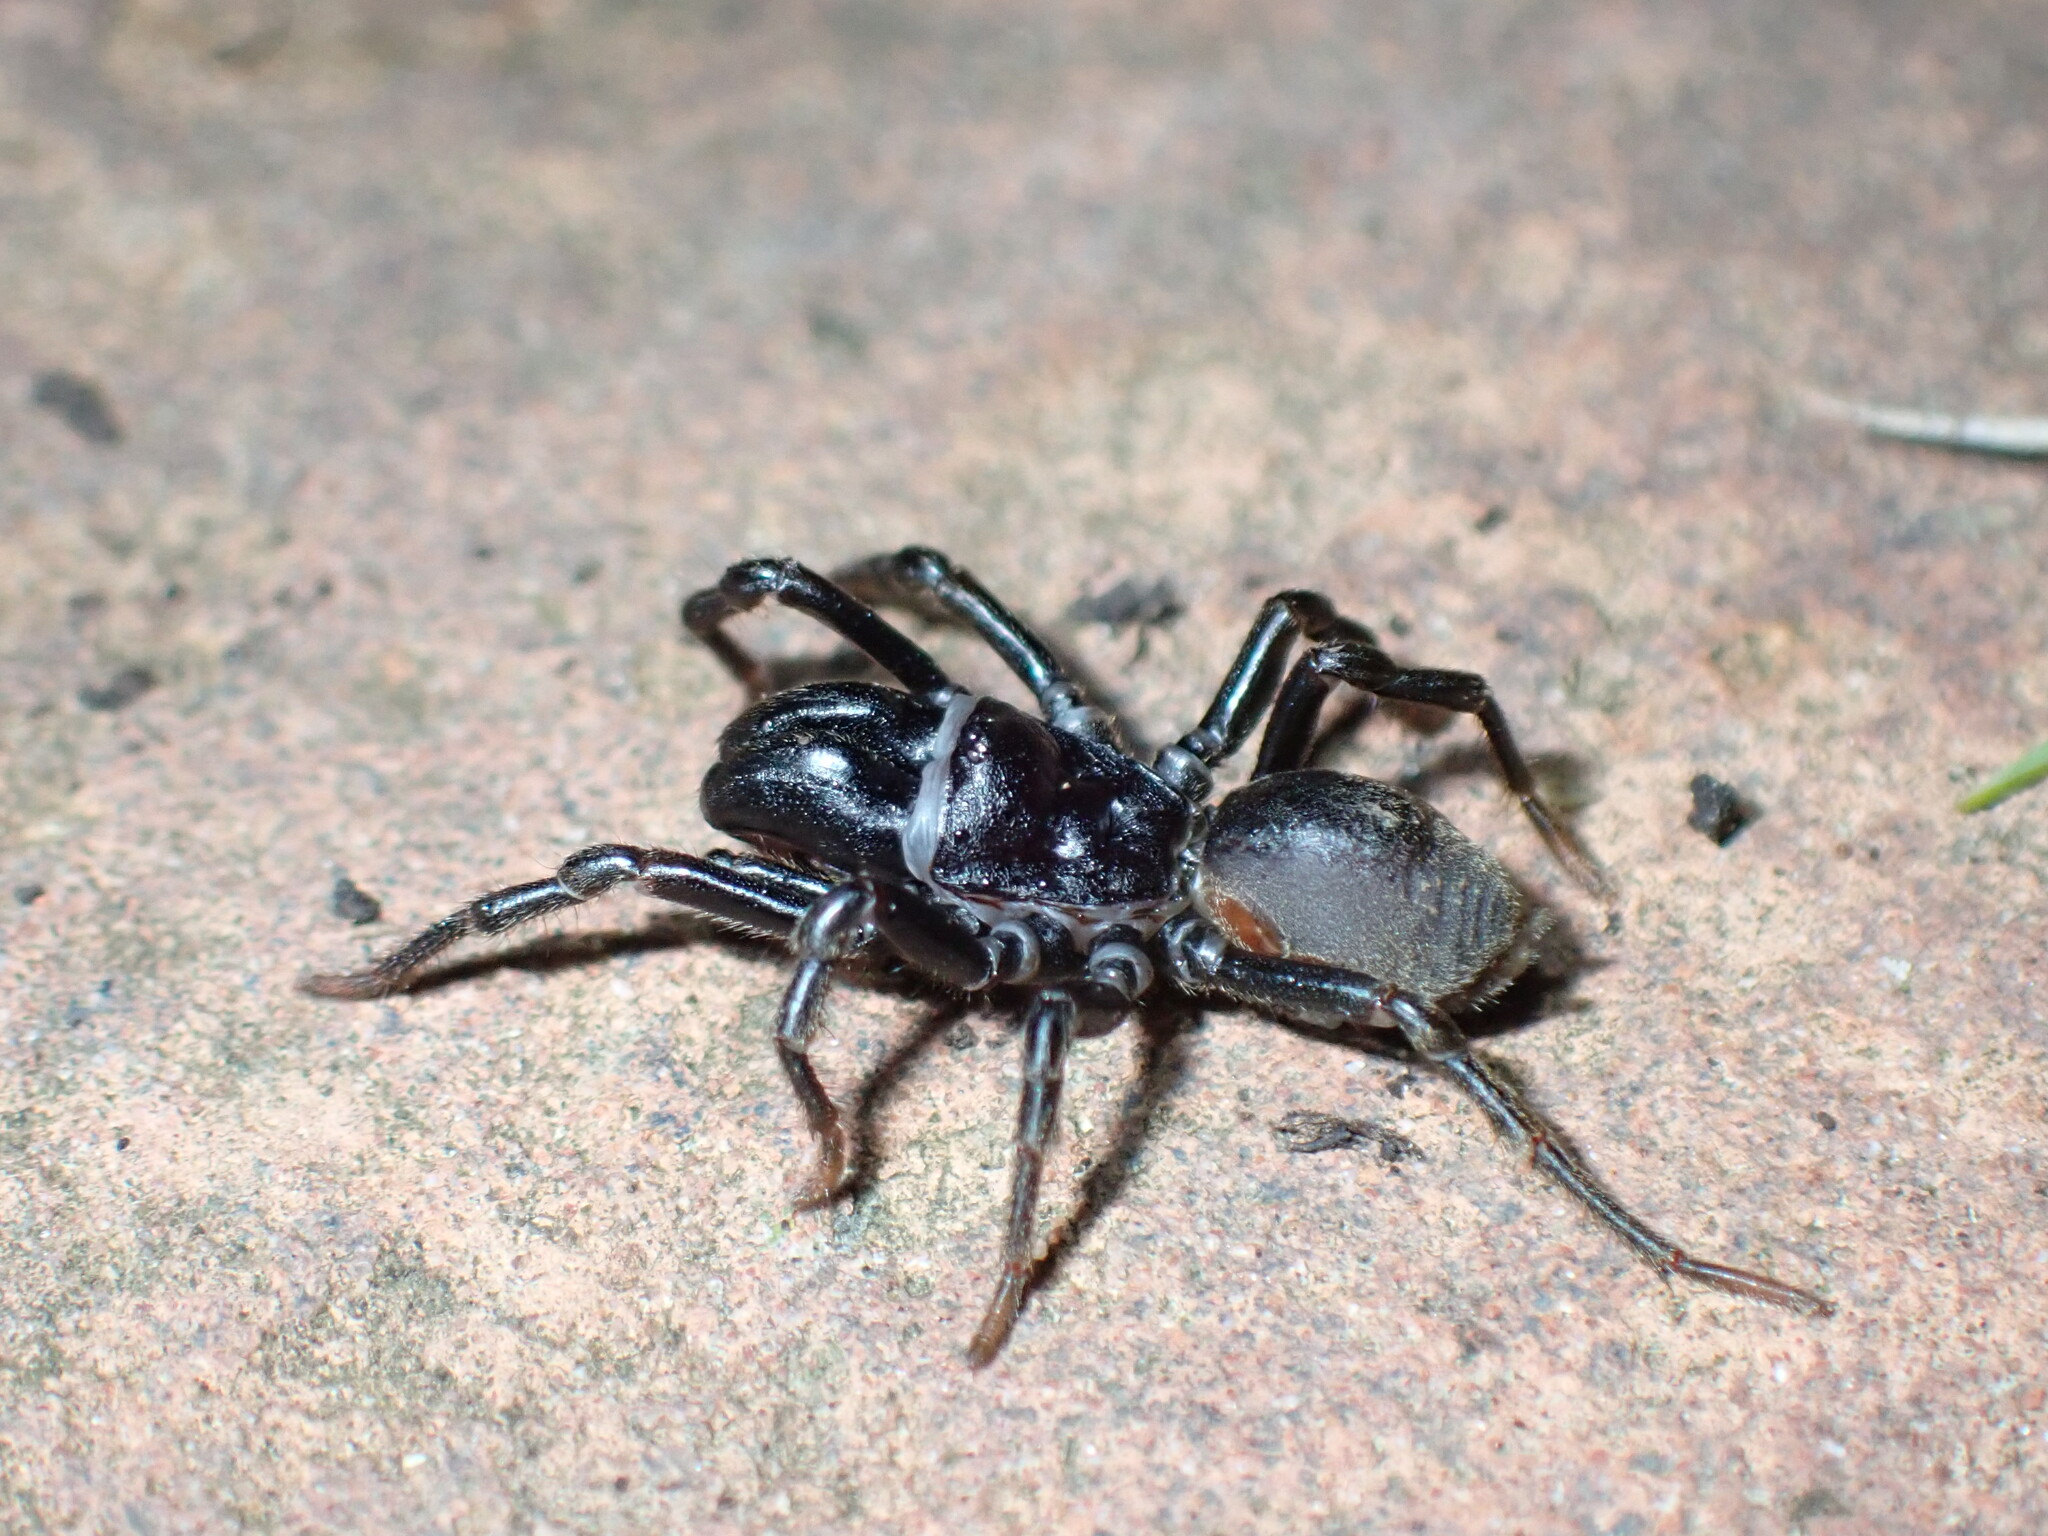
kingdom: Animalia
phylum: Arthropoda
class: Arachnida
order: Araneae
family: Atypidae
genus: Atypus
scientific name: Atypus affinis
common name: Purse web spider
